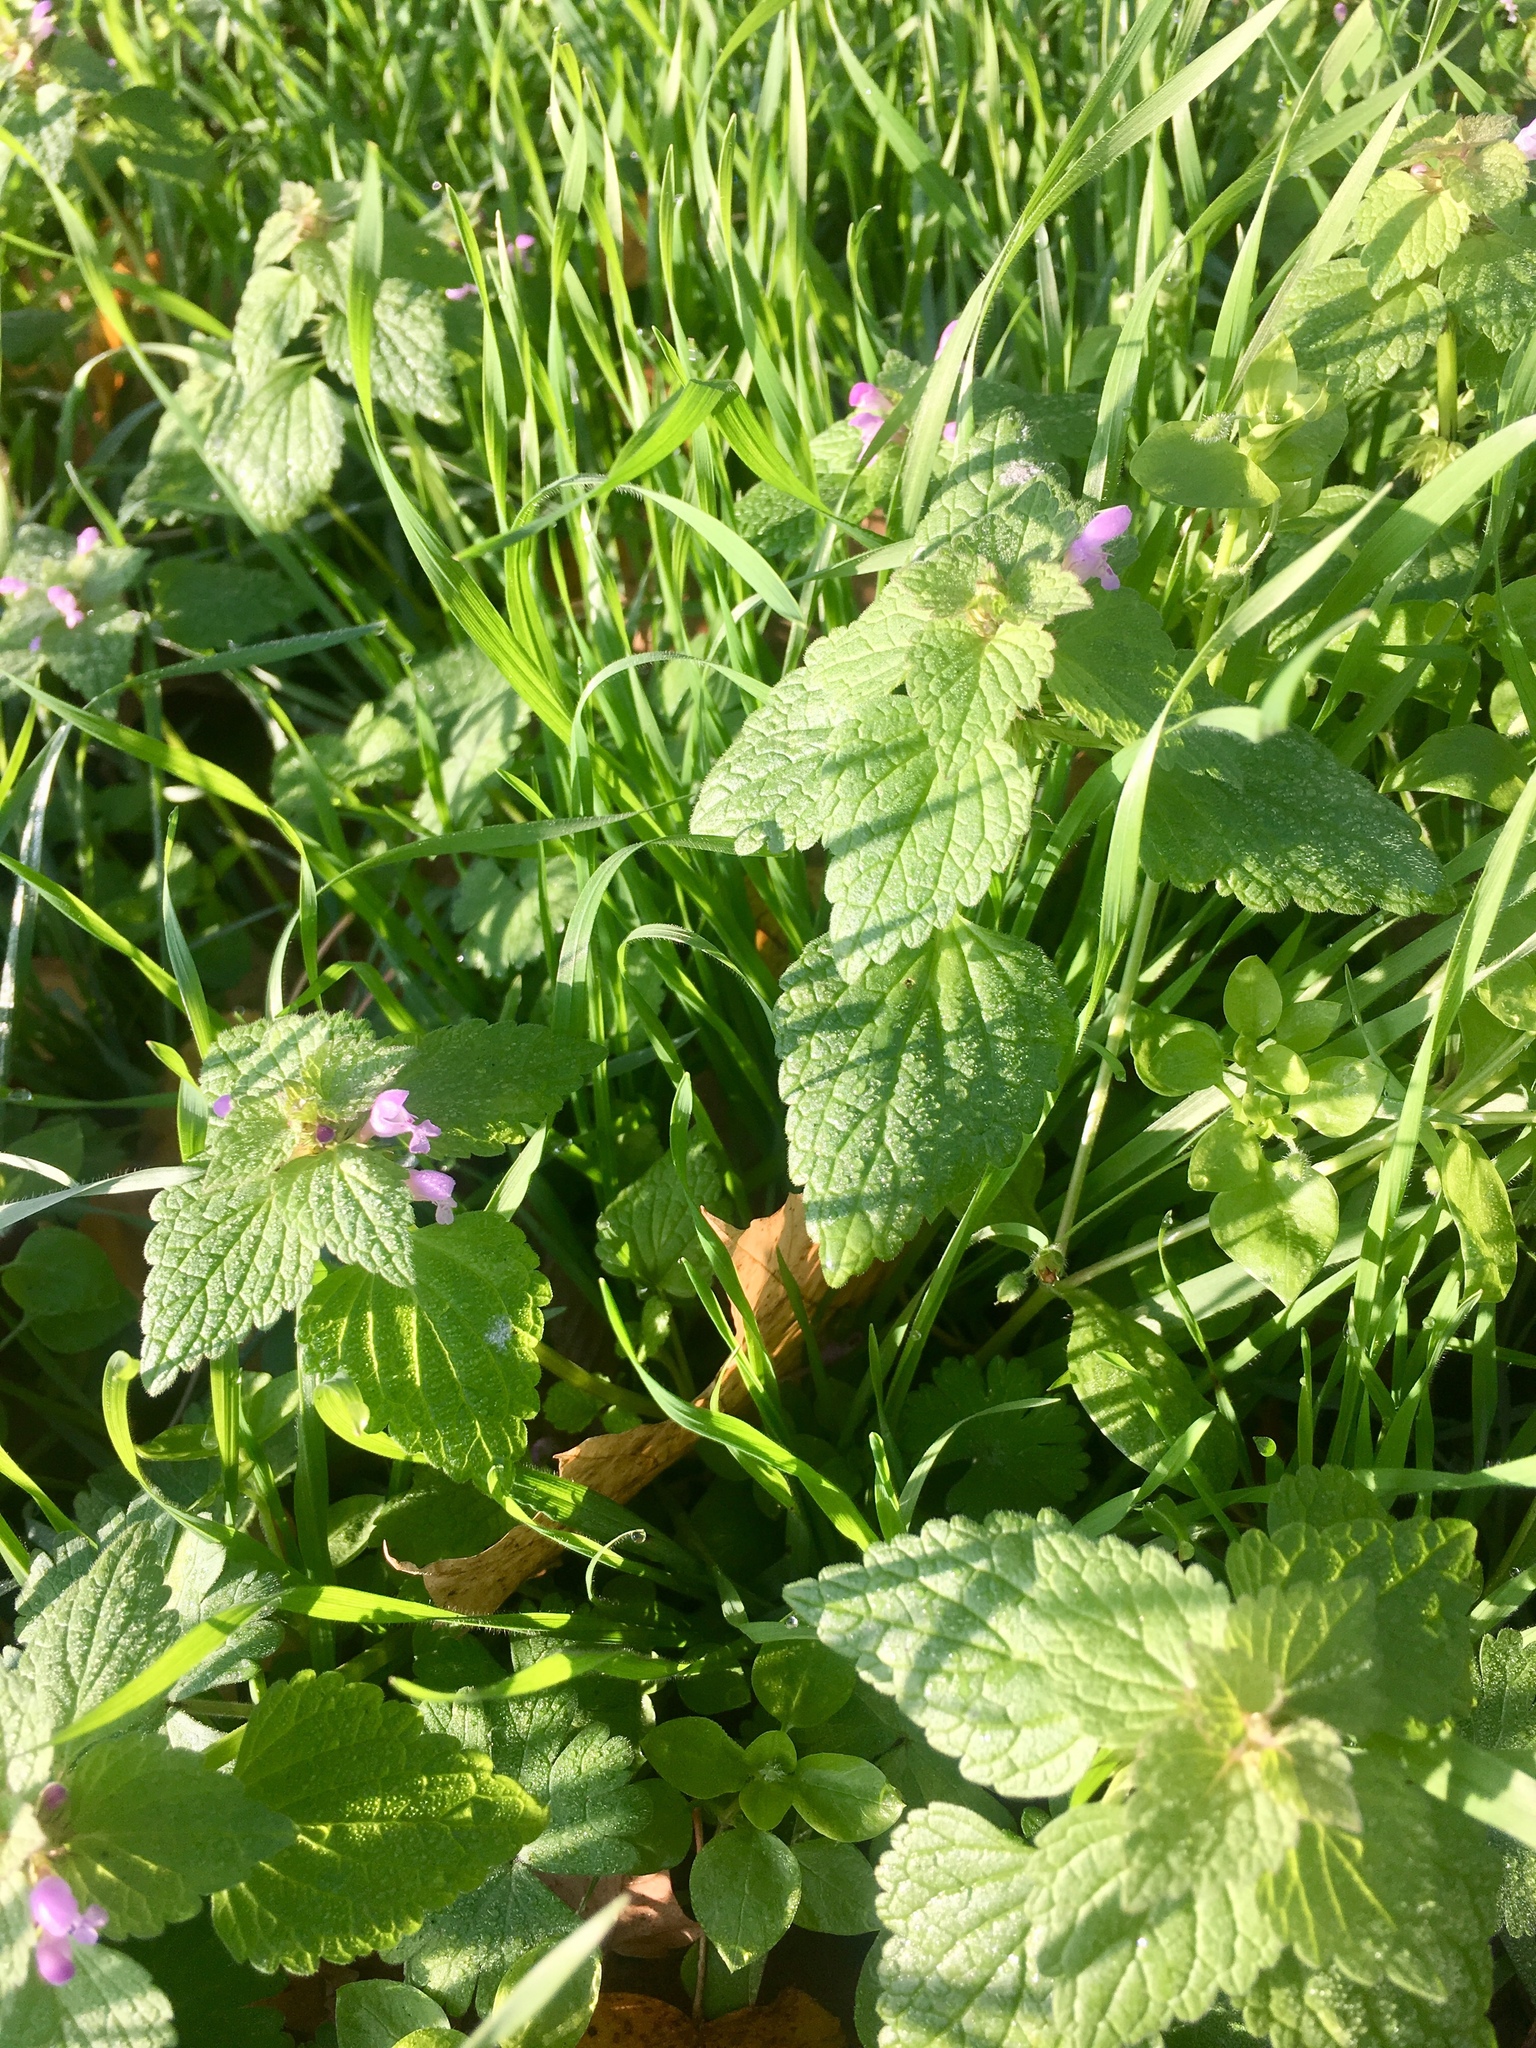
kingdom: Plantae
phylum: Tracheophyta
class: Magnoliopsida
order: Lamiales
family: Lamiaceae
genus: Lamium
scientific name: Lamium purpureum
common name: Red dead-nettle
